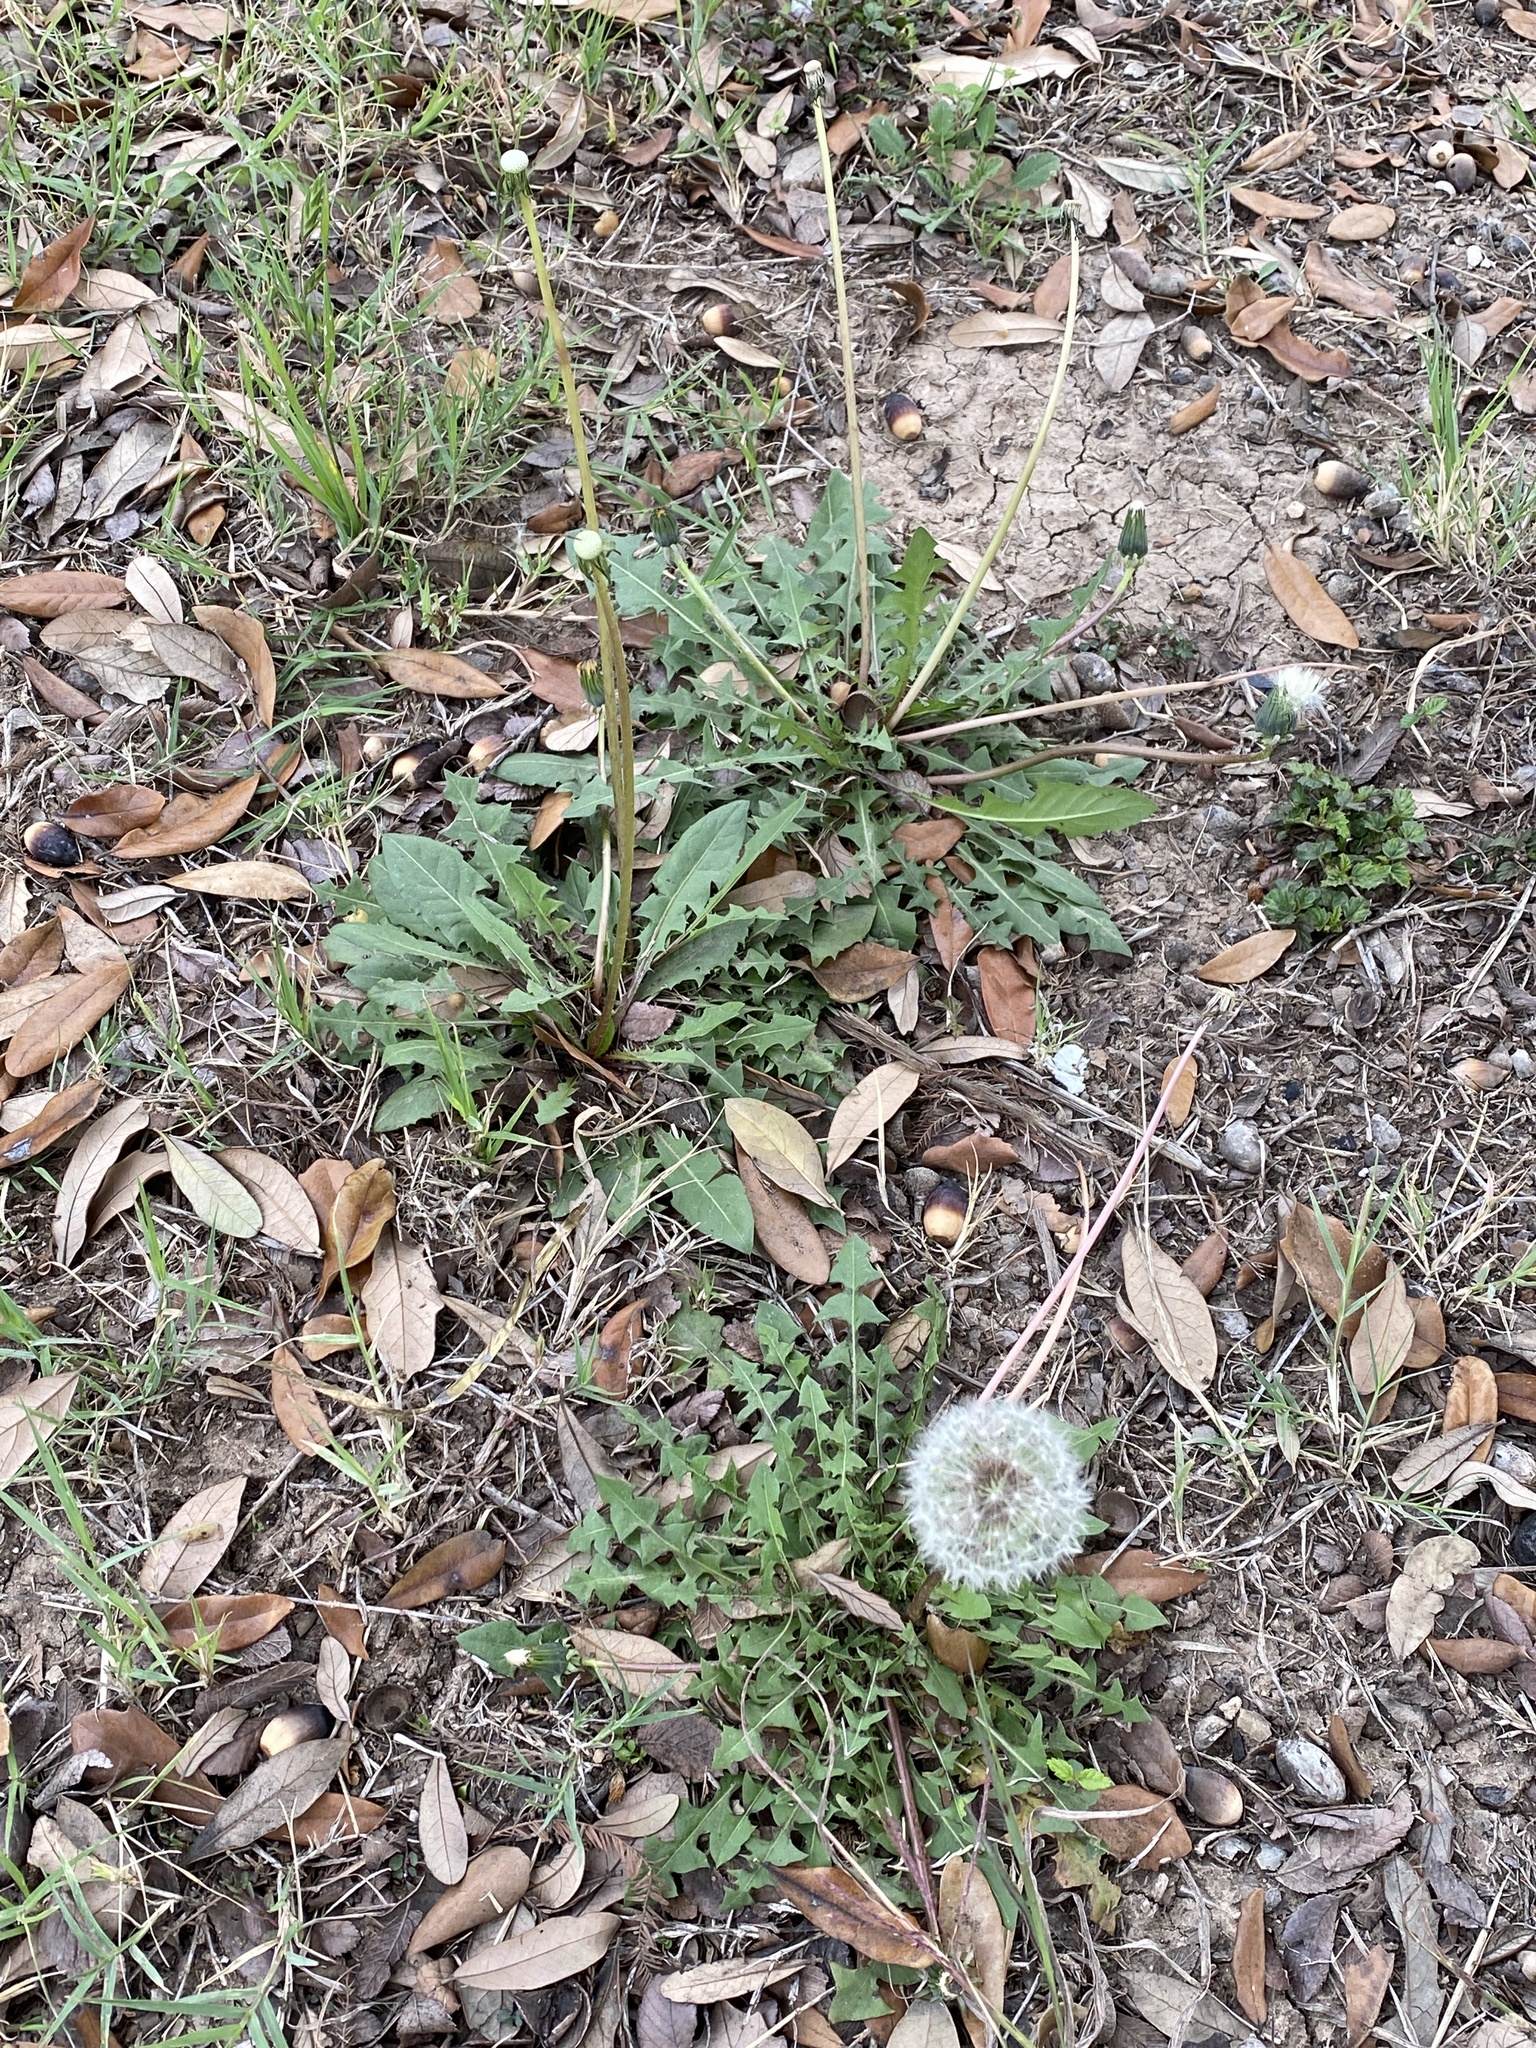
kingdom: Plantae
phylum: Tracheophyta
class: Magnoliopsida
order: Asterales
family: Asteraceae
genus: Taraxacum
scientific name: Taraxacum officinale
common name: Common dandelion
